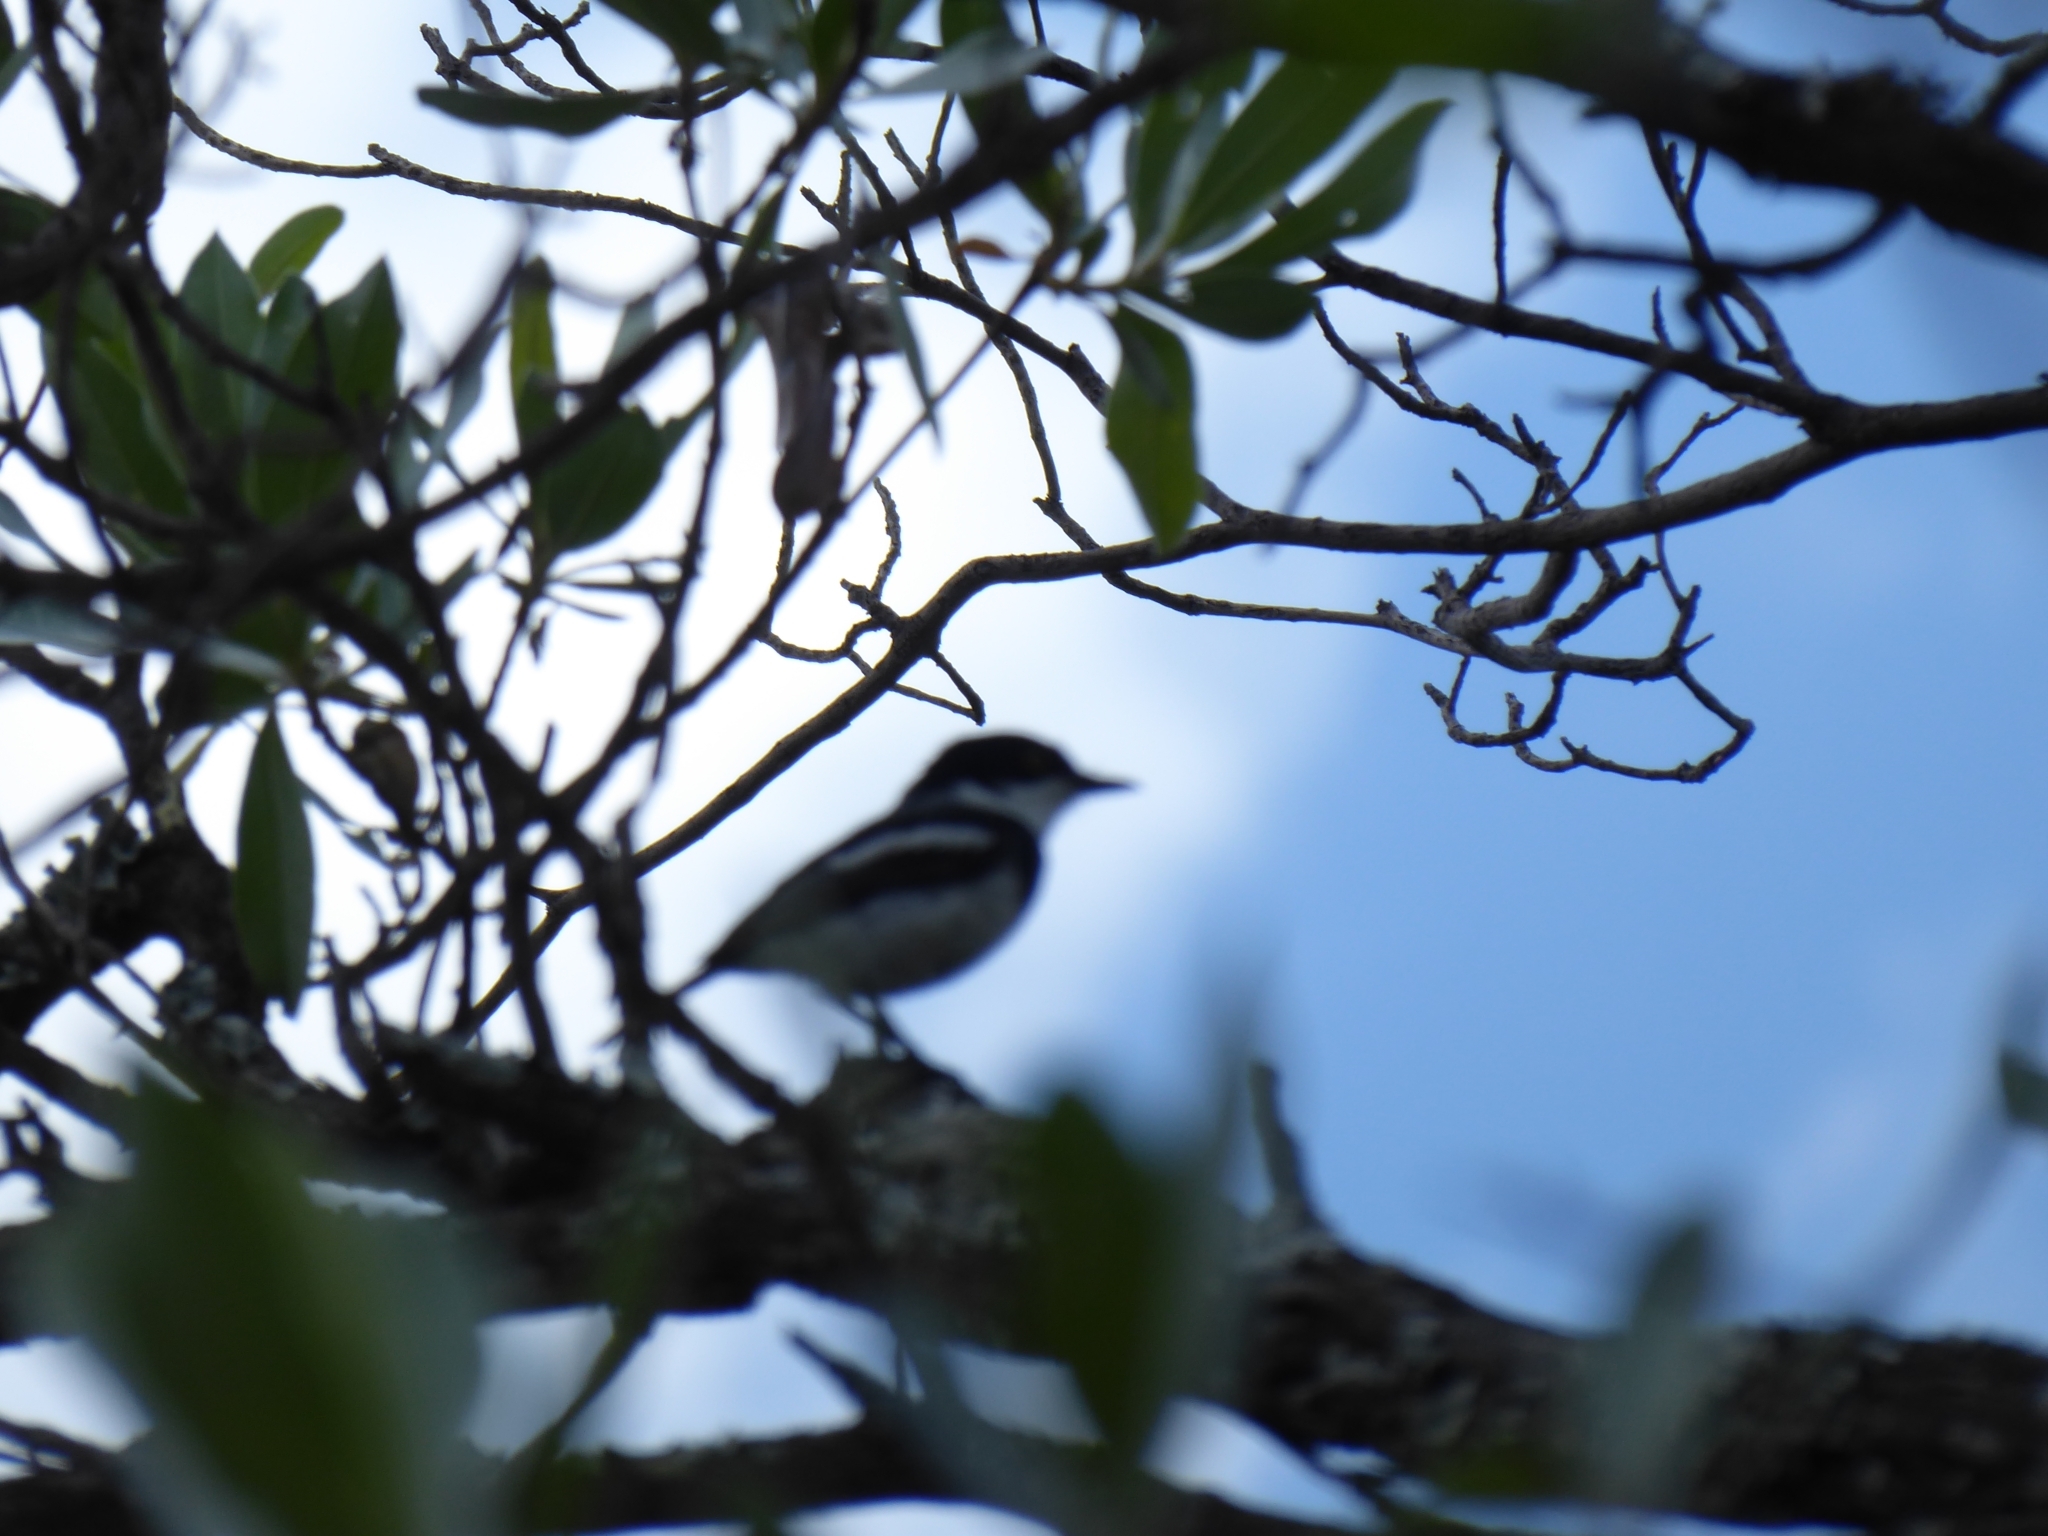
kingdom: Animalia
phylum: Chordata
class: Aves
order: Passeriformes
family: Platysteiridae
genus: Batis
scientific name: Batis molitor
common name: Chinspot batis
